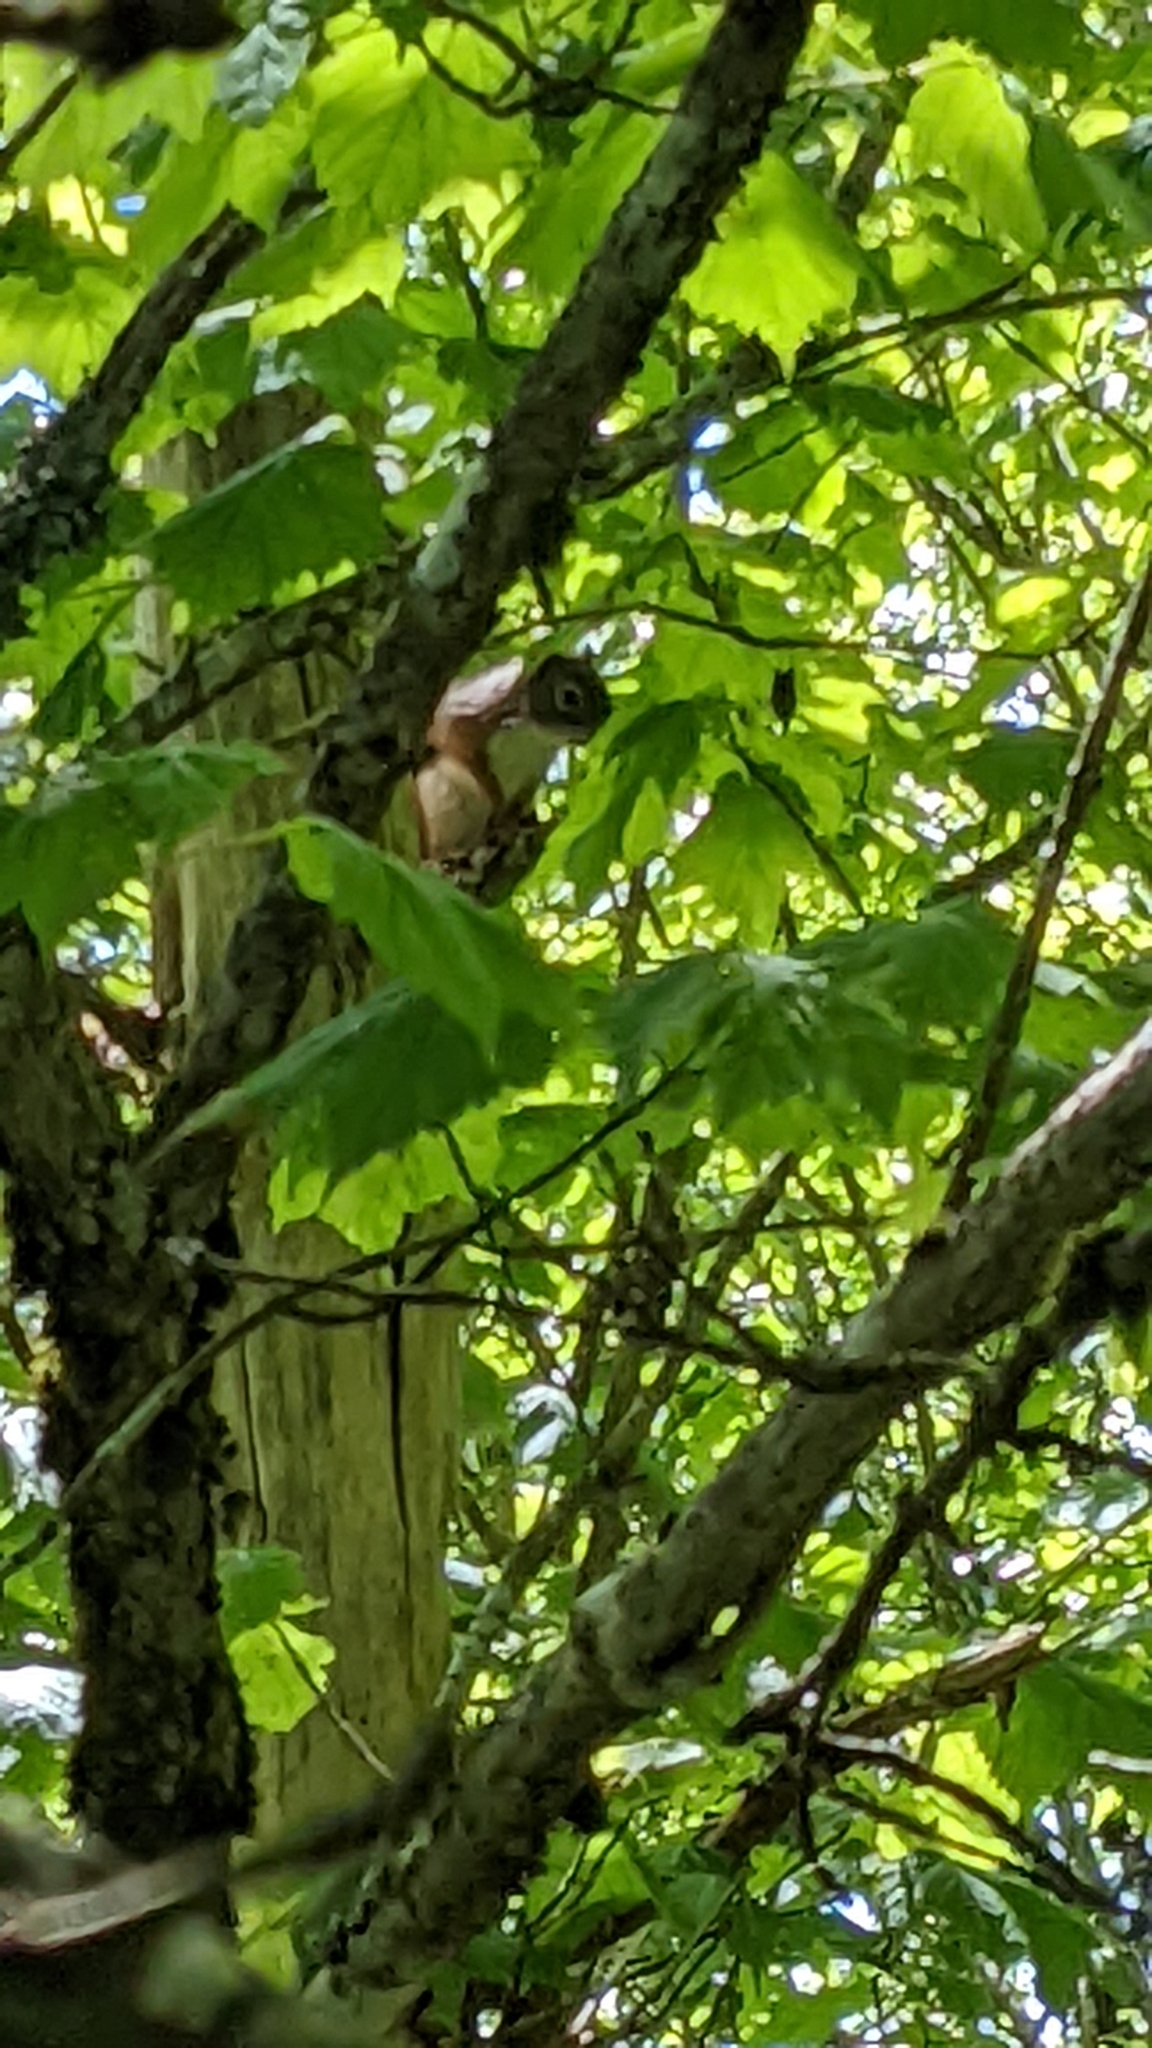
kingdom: Animalia
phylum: Chordata
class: Mammalia
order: Rodentia
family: Sciuridae
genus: Tamiasciurus
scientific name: Tamiasciurus hudsonicus
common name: Red squirrel
